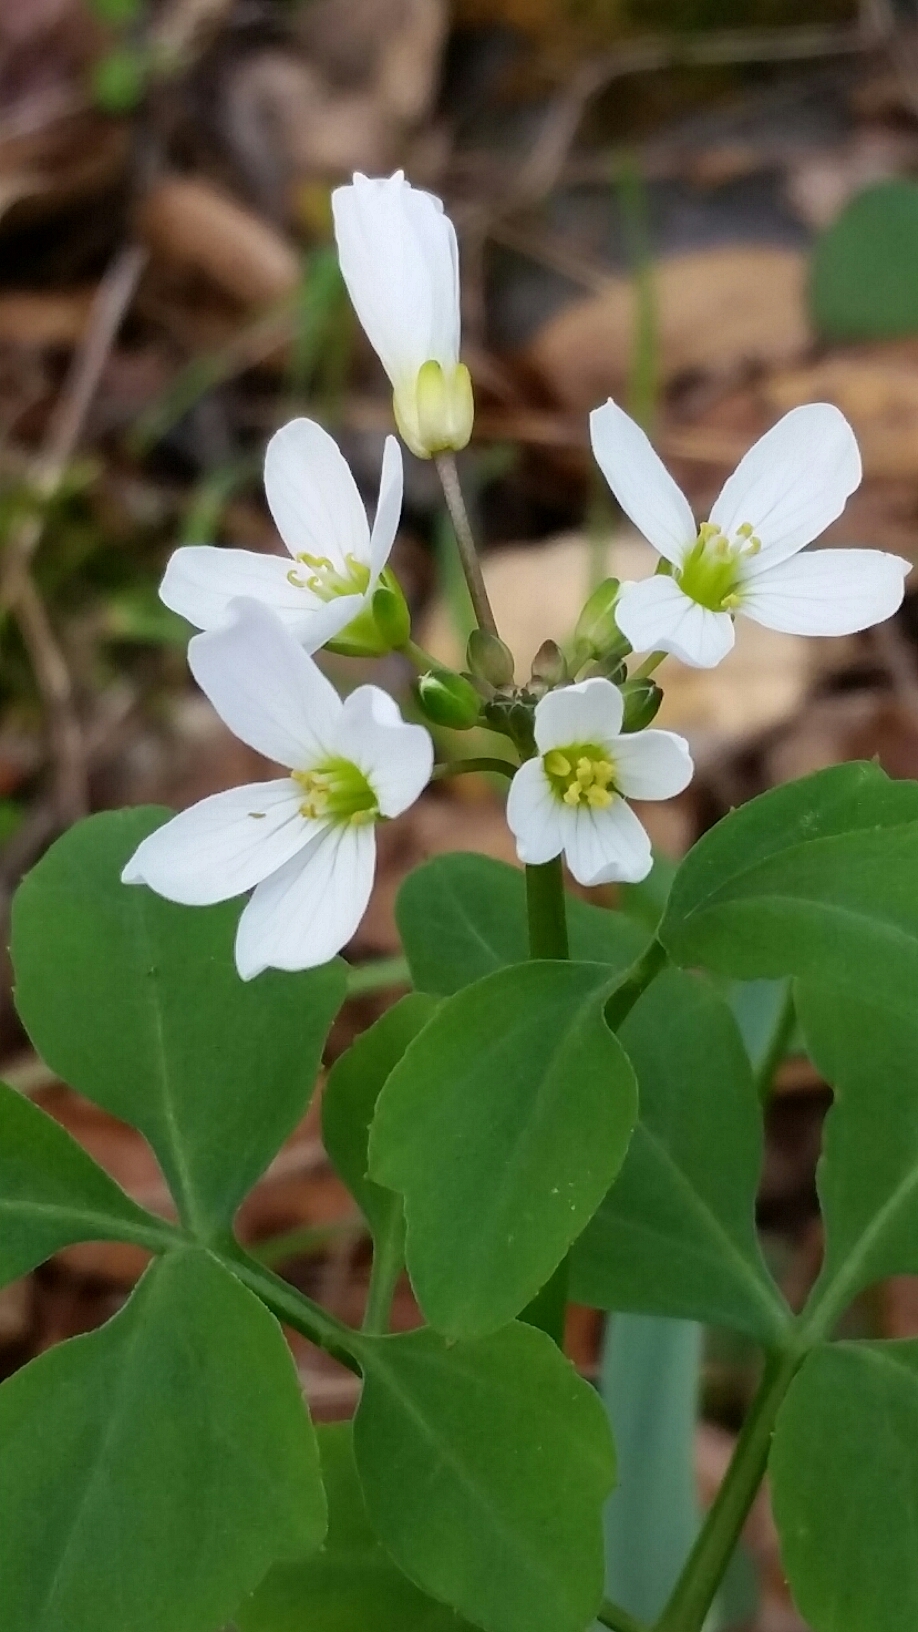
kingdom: Plantae
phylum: Tracheophyta
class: Magnoliopsida
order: Brassicales
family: Brassicaceae
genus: Cardamine
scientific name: Cardamine californica
